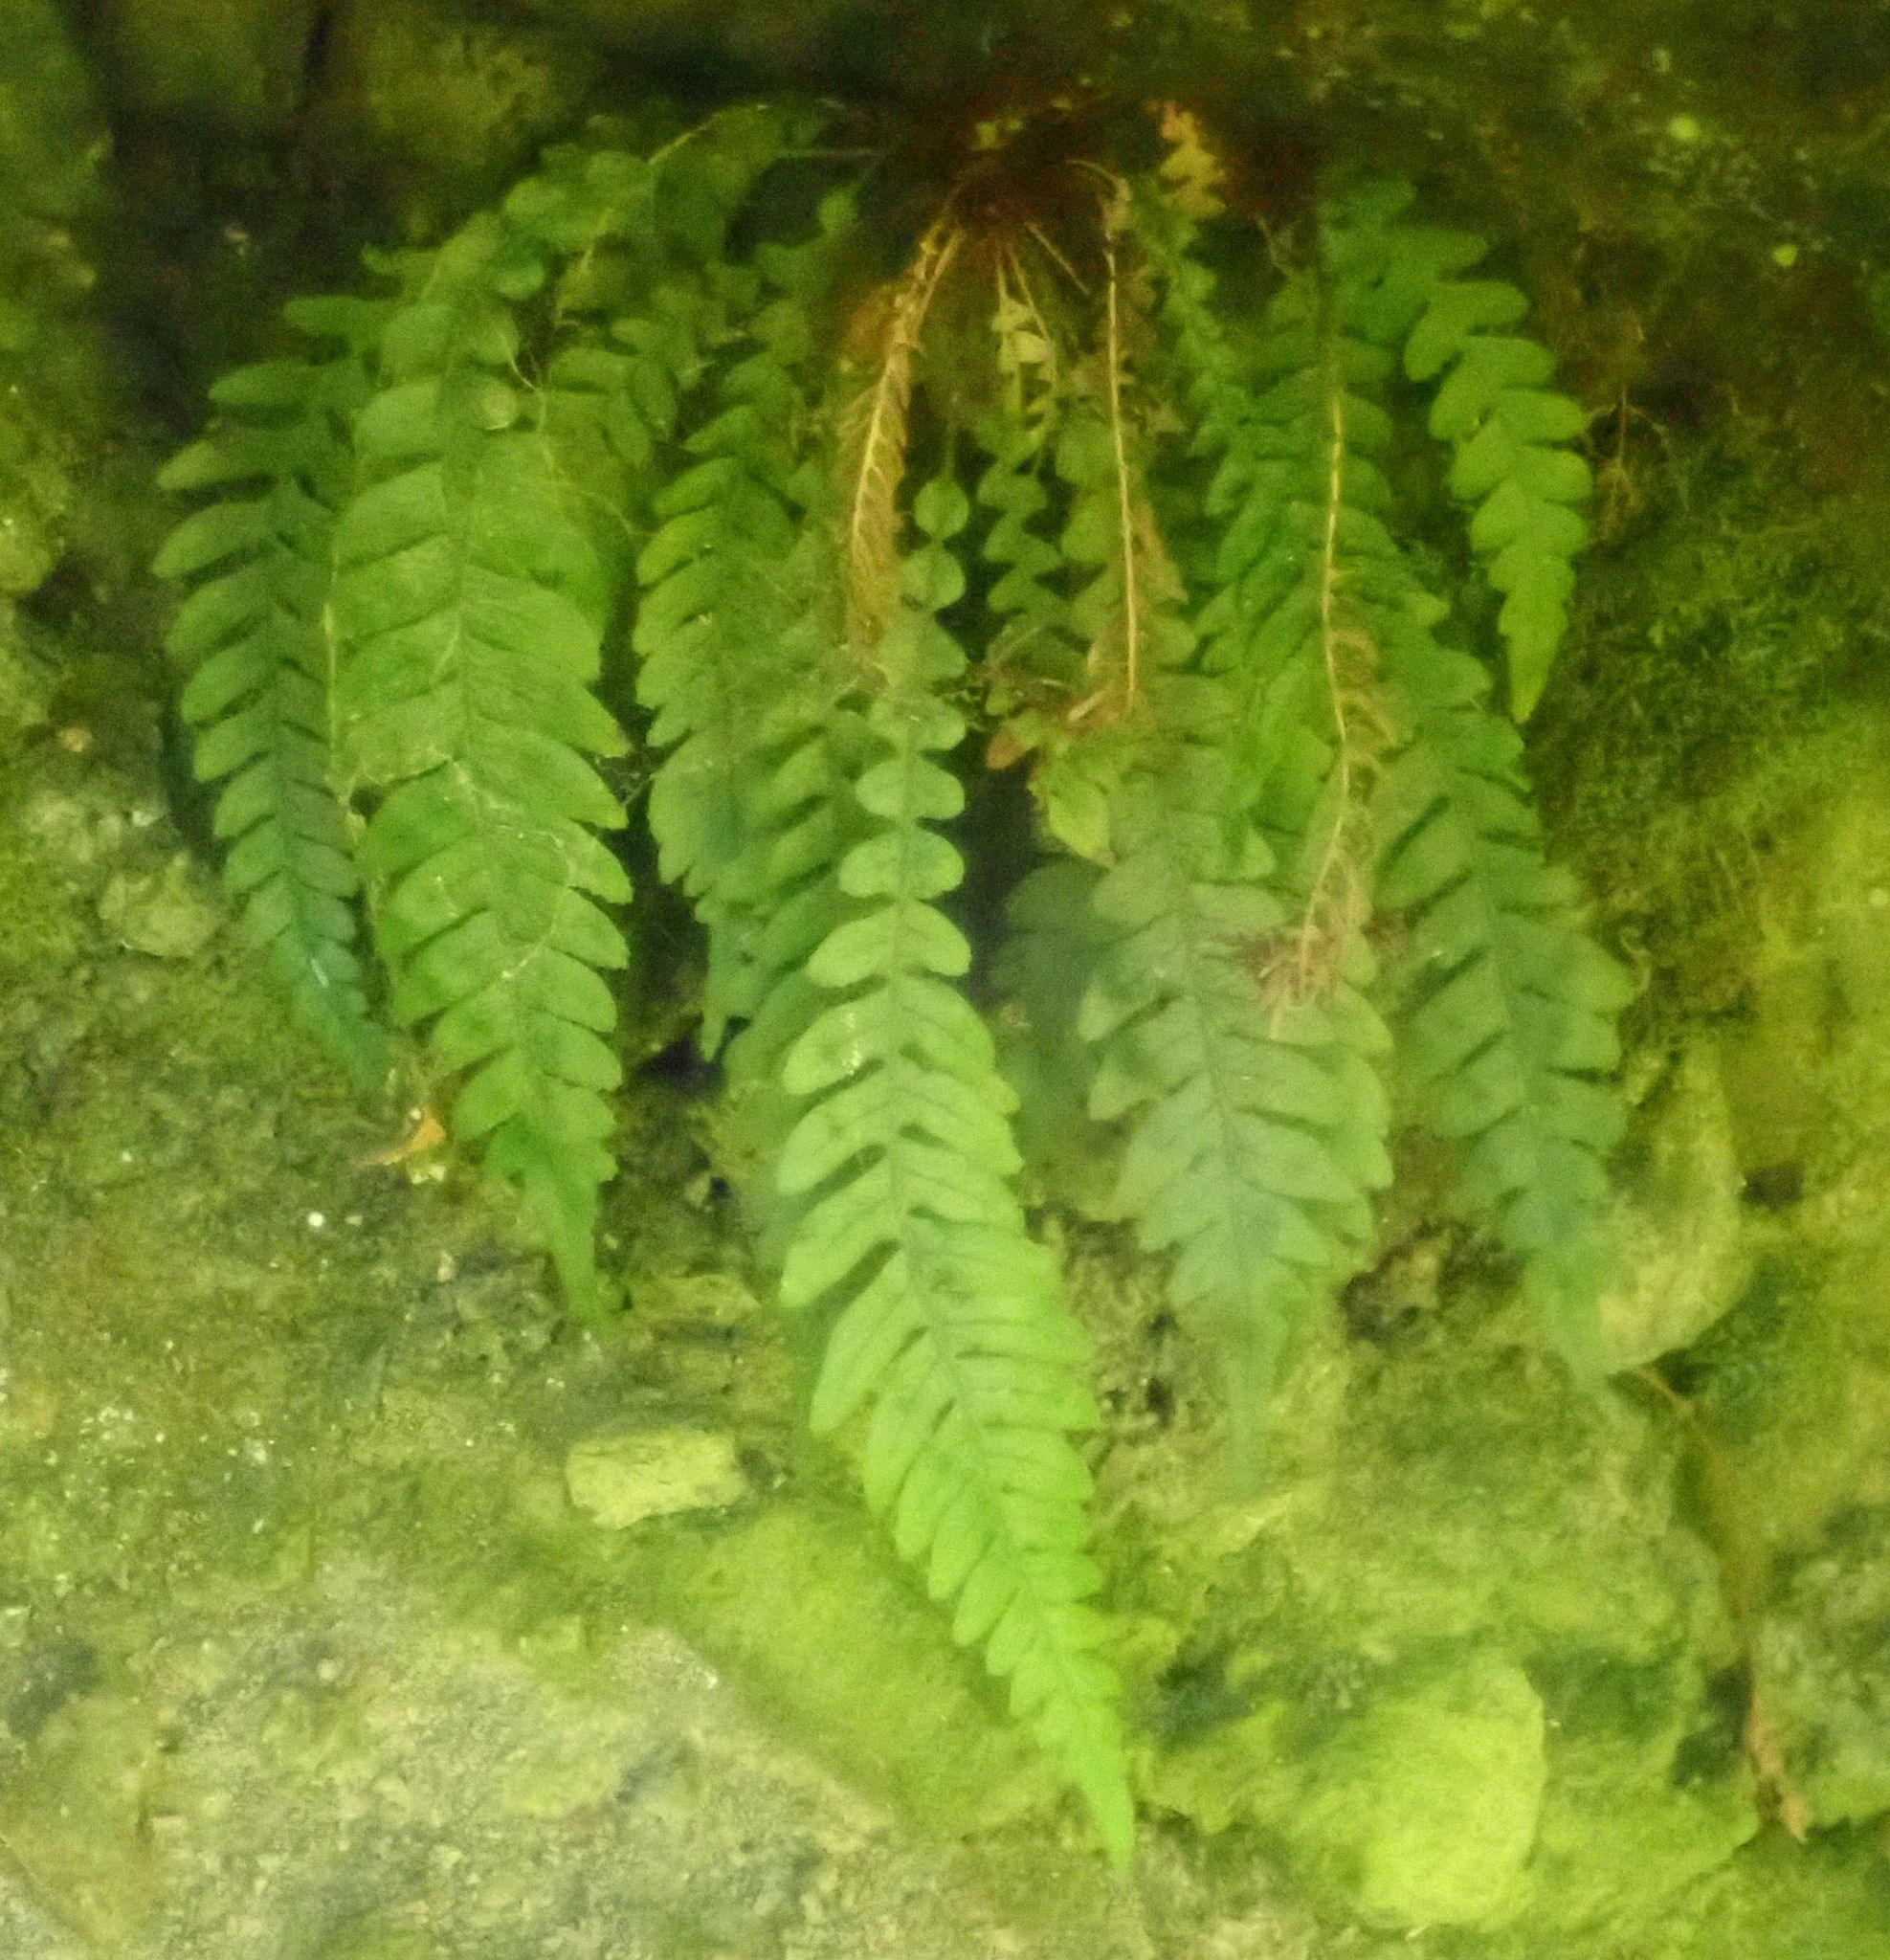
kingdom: Plantae
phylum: Tracheophyta
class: Polypodiopsida
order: Polypodiales
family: Blechnaceae
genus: Austroblechnum
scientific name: Austroblechnum lanceolatum
